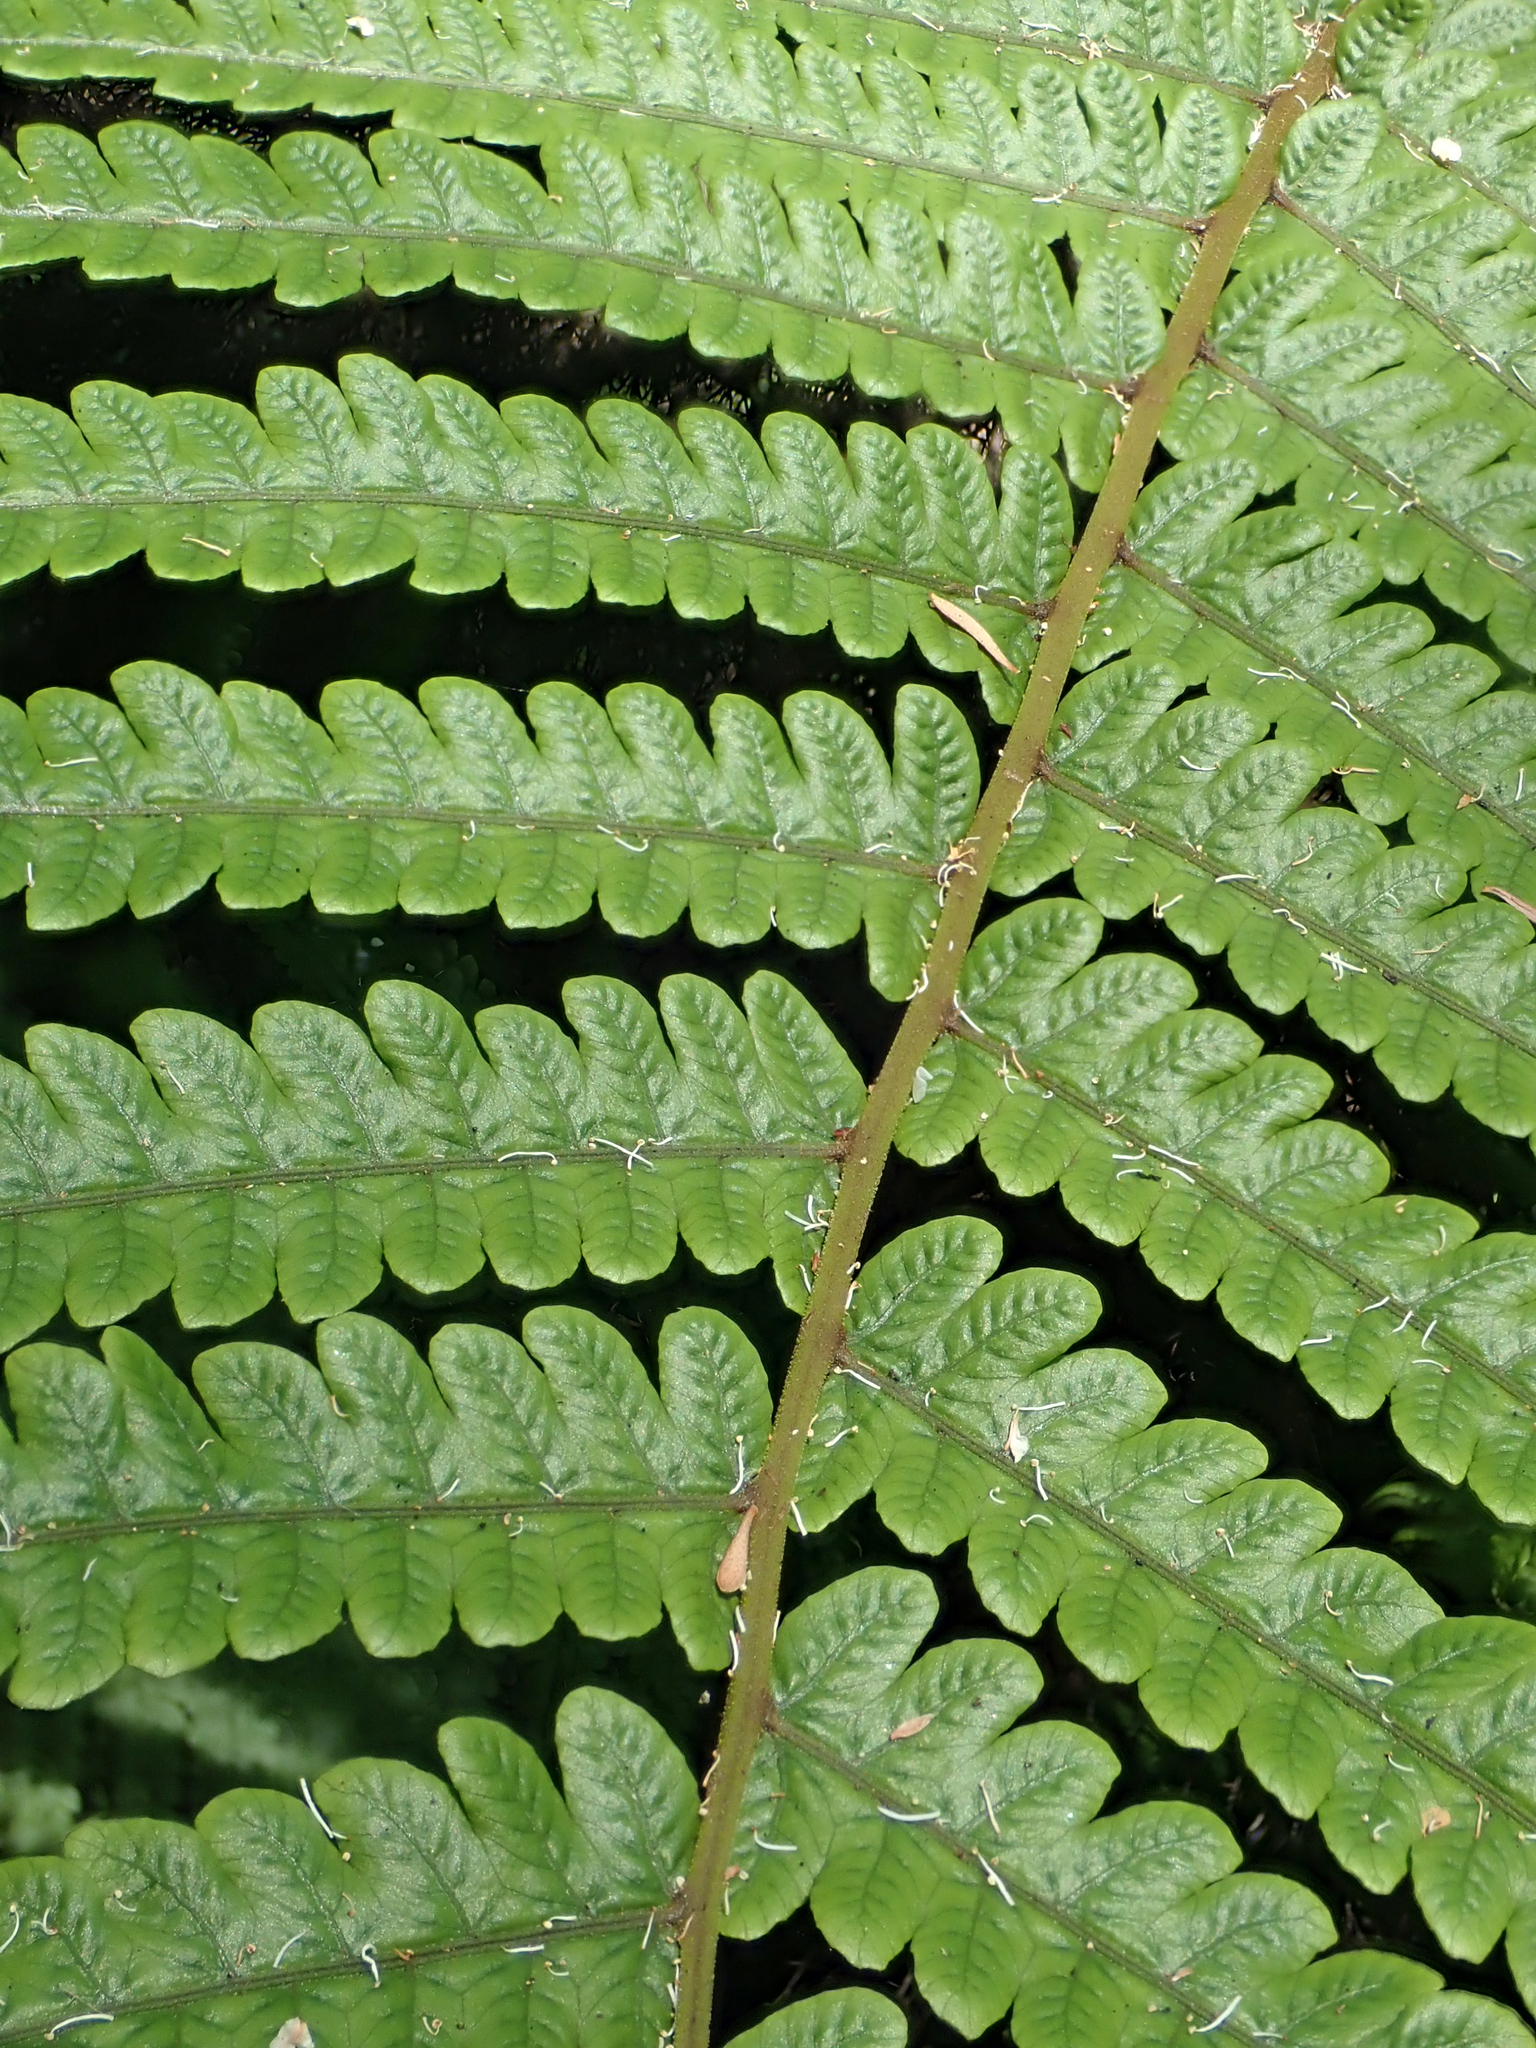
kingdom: Plantae
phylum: Tracheophyta
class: Polypodiopsida
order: Polypodiales
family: Thelypteridaceae
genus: Pakau
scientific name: Pakau pennigera
